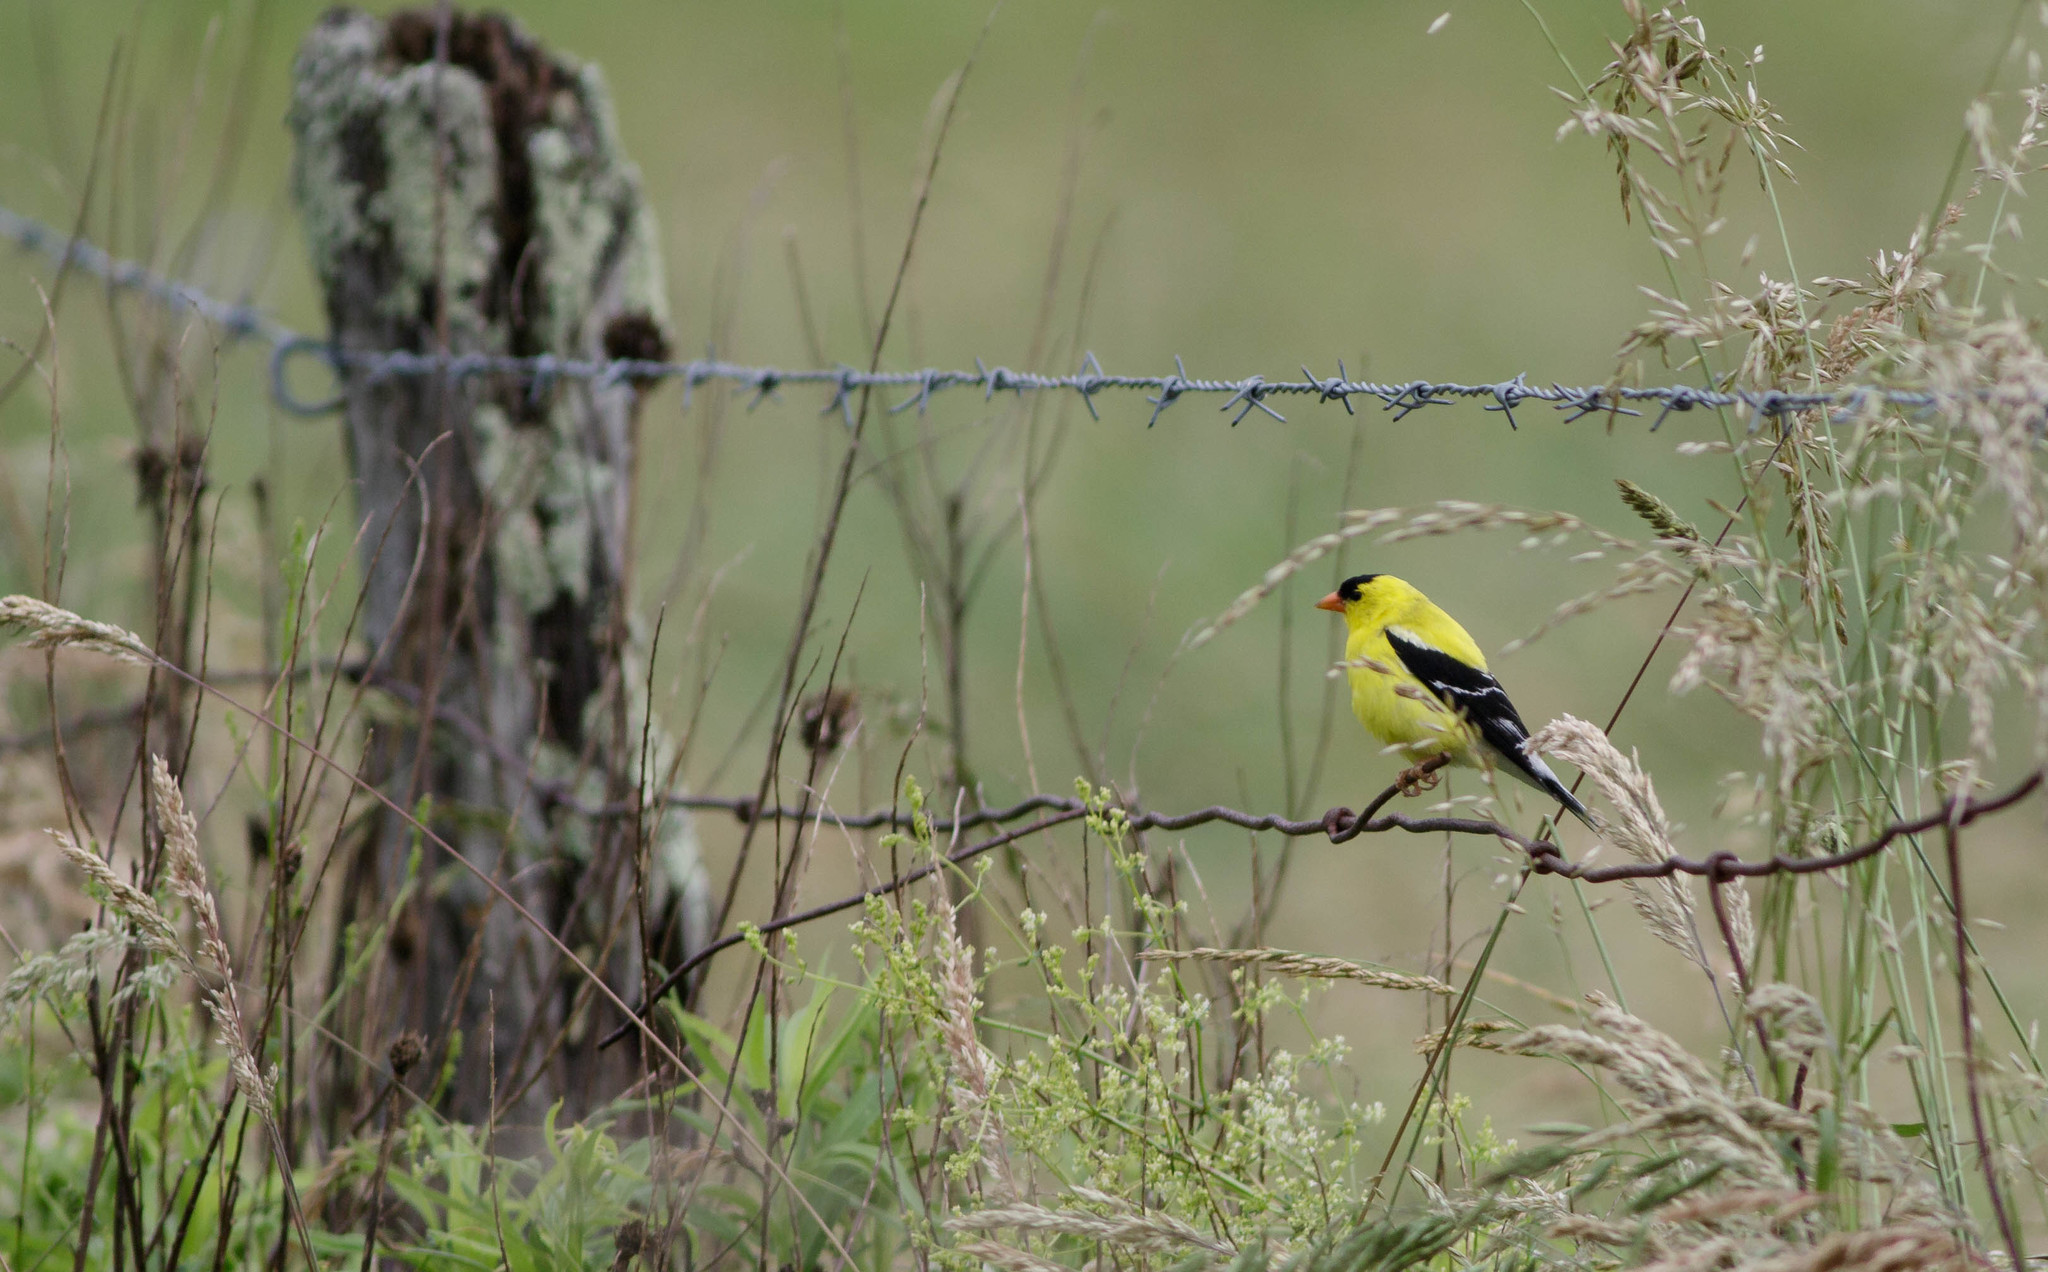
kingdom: Animalia
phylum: Chordata
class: Aves
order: Passeriformes
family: Fringillidae
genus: Spinus
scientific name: Spinus tristis
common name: American goldfinch
